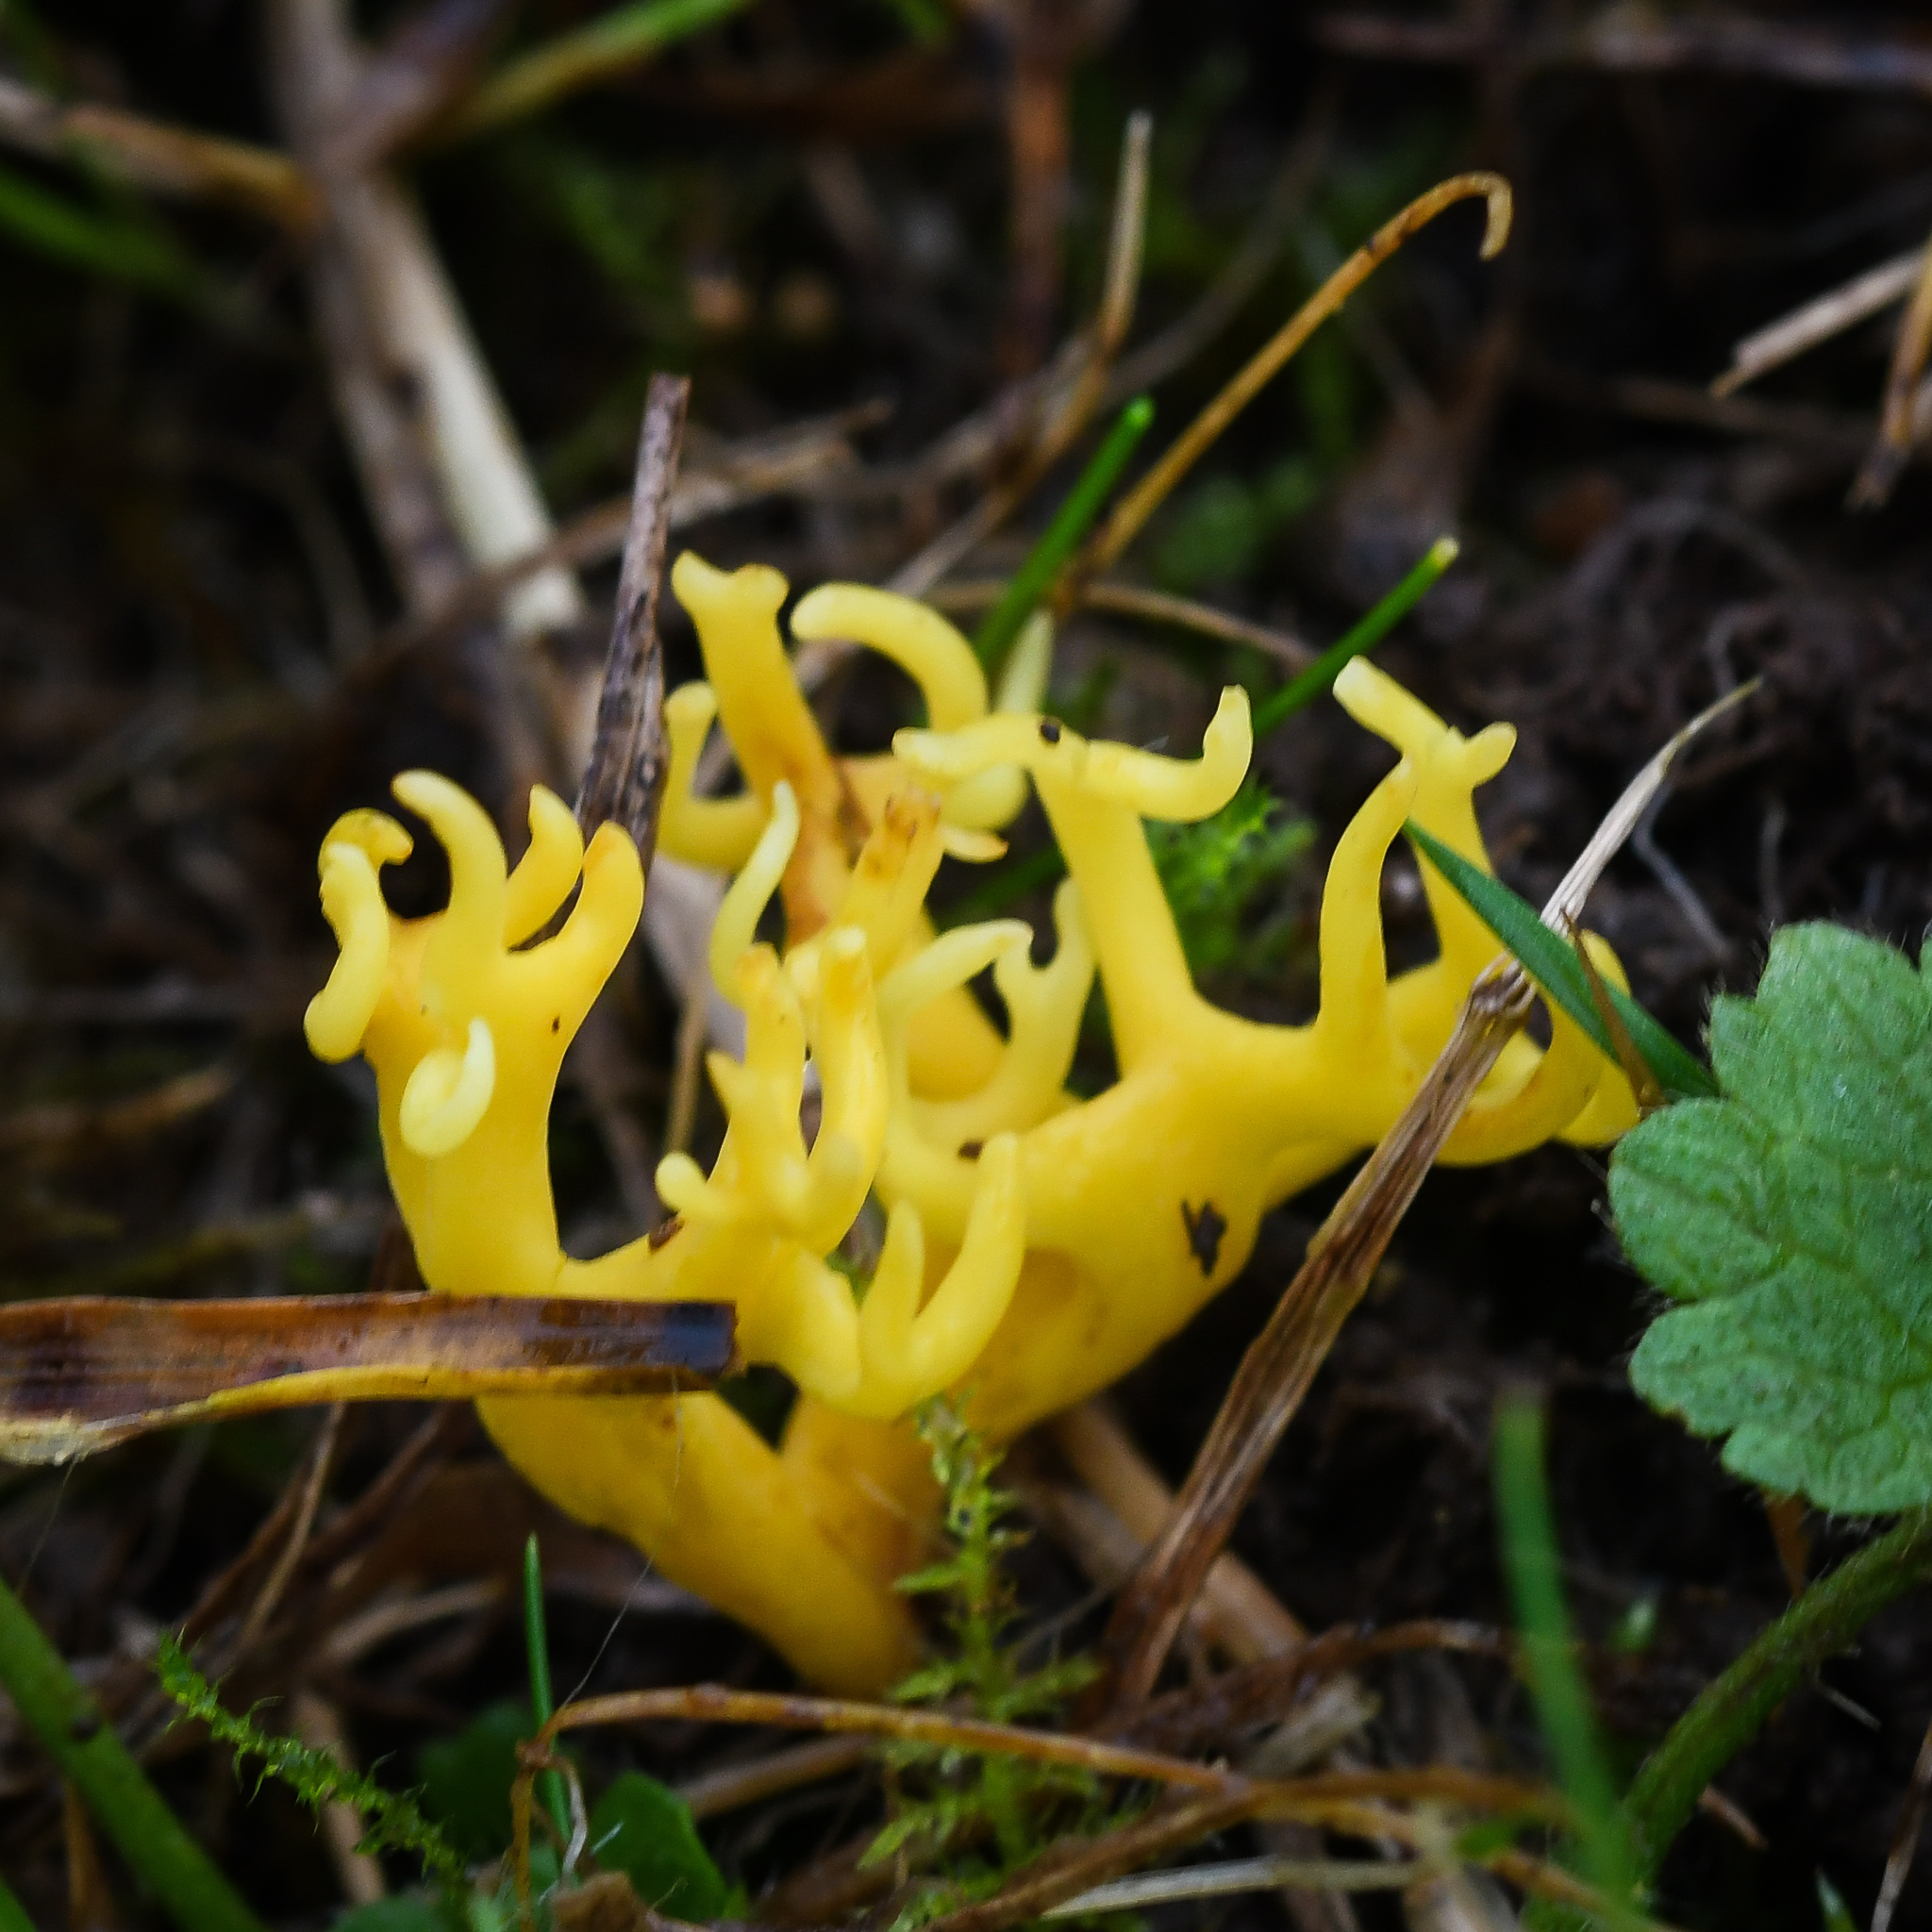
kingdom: Fungi
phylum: Basidiomycota
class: Agaricomycetes
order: Agaricales
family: Clavariaceae
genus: Clavulinopsis
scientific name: Clavulinopsis corniculata
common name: Meadow coral
